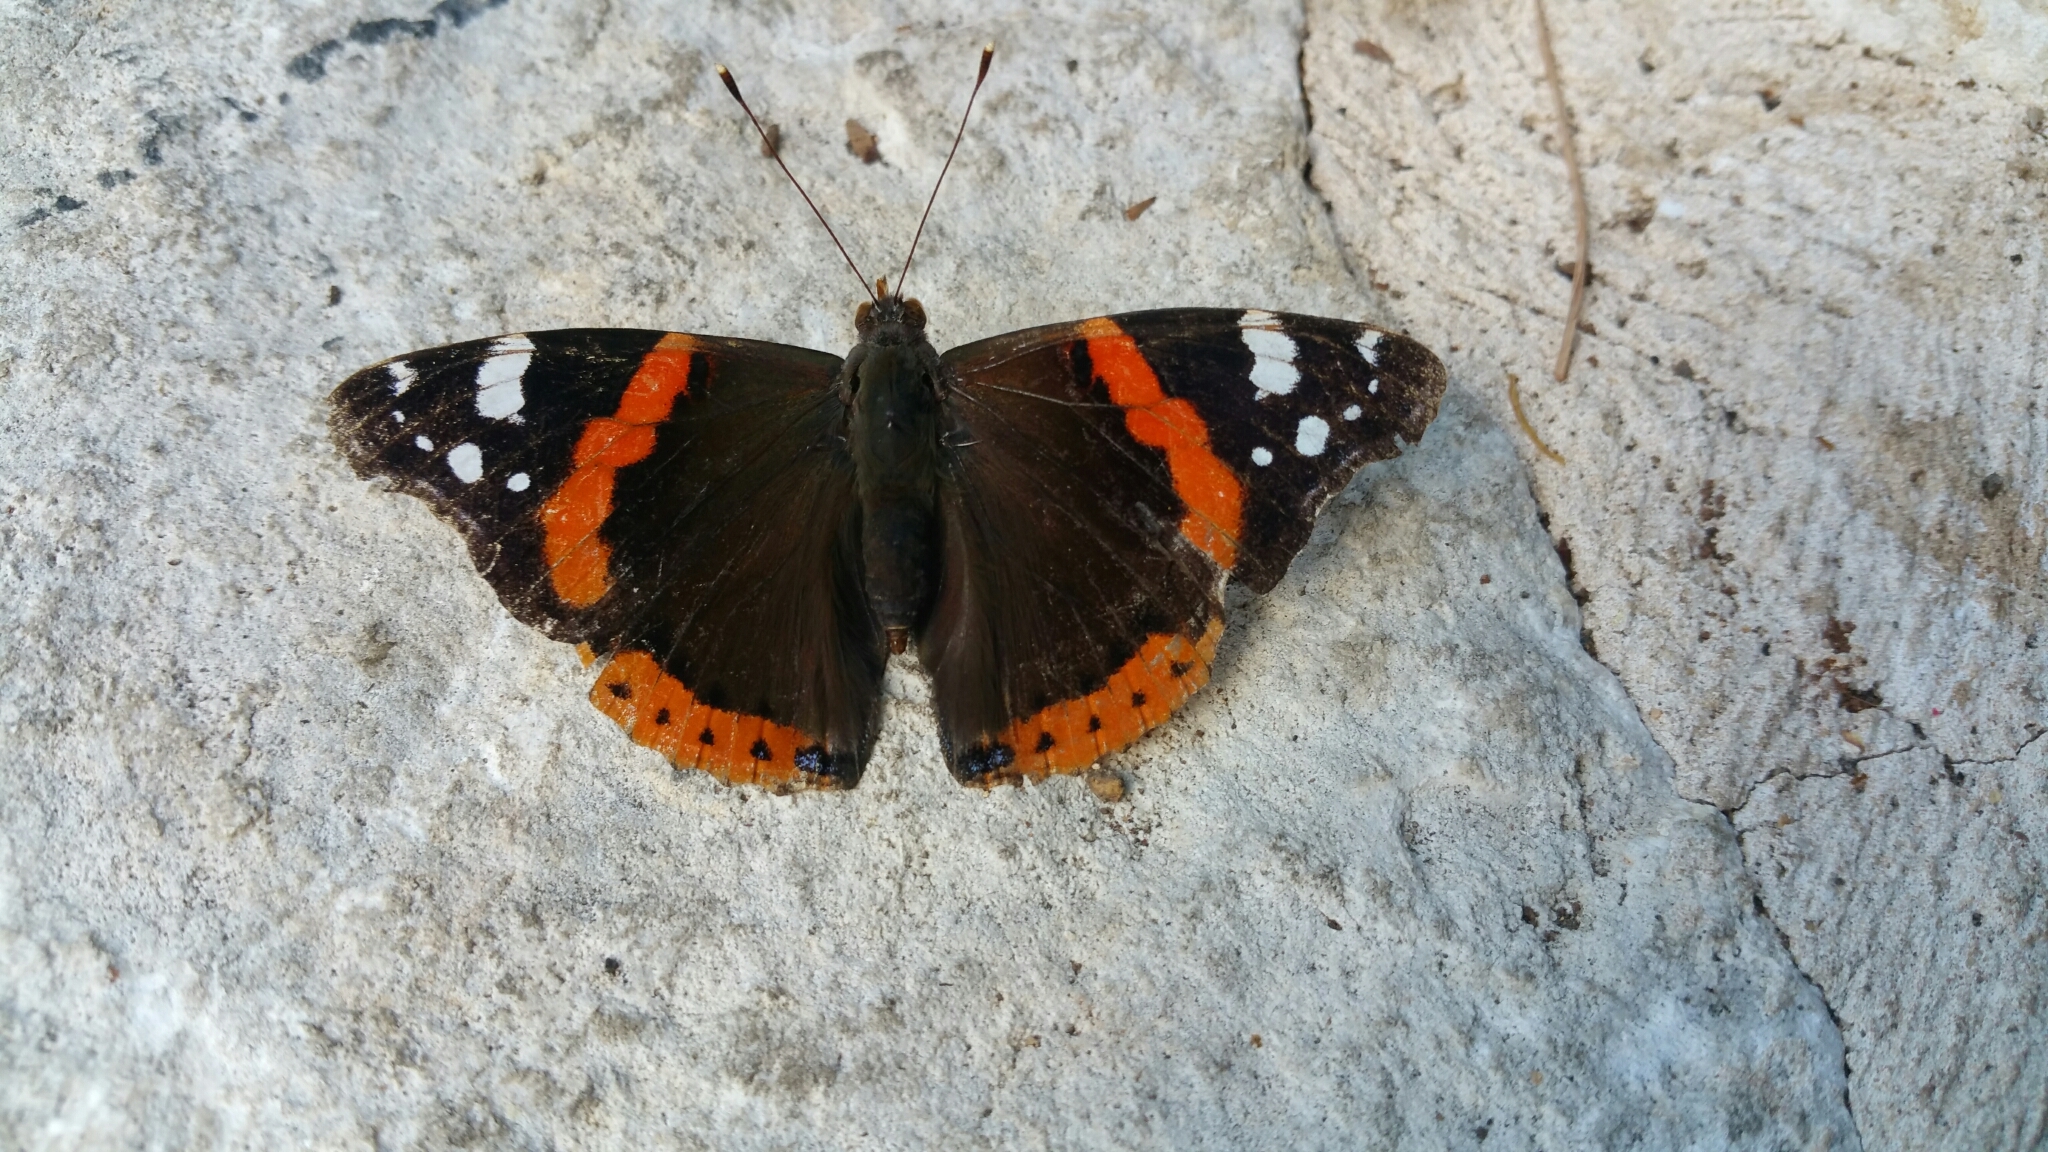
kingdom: Animalia
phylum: Arthropoda
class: Insecta
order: Lepidoptera
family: Nymphalidae
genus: Vanessa
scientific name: Vanessa atalanta
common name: Red admiral
